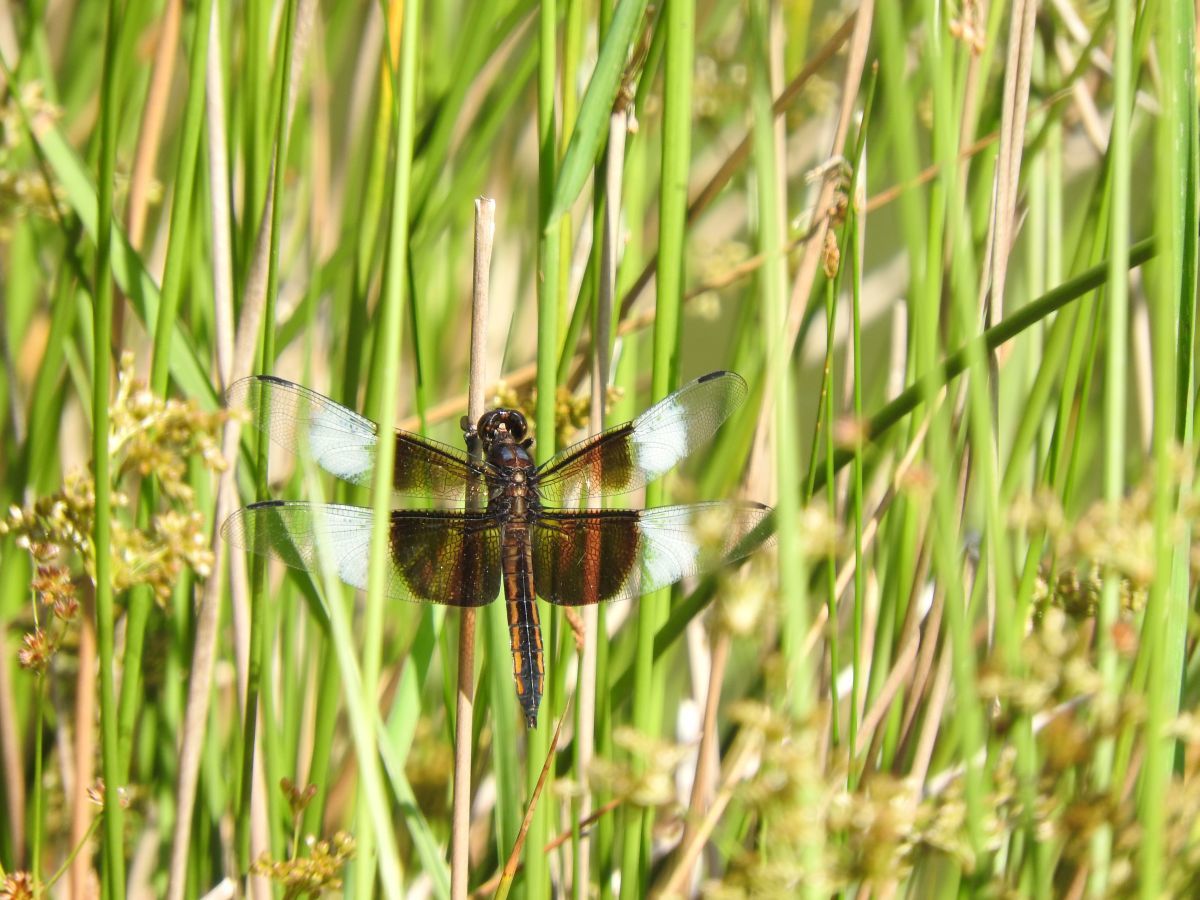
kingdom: Animalia
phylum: Arthropoda
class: Insecta
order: Odonata
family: Libellulidae
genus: Libellula
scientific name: Libellula luctuosa
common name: Widow skimmer
